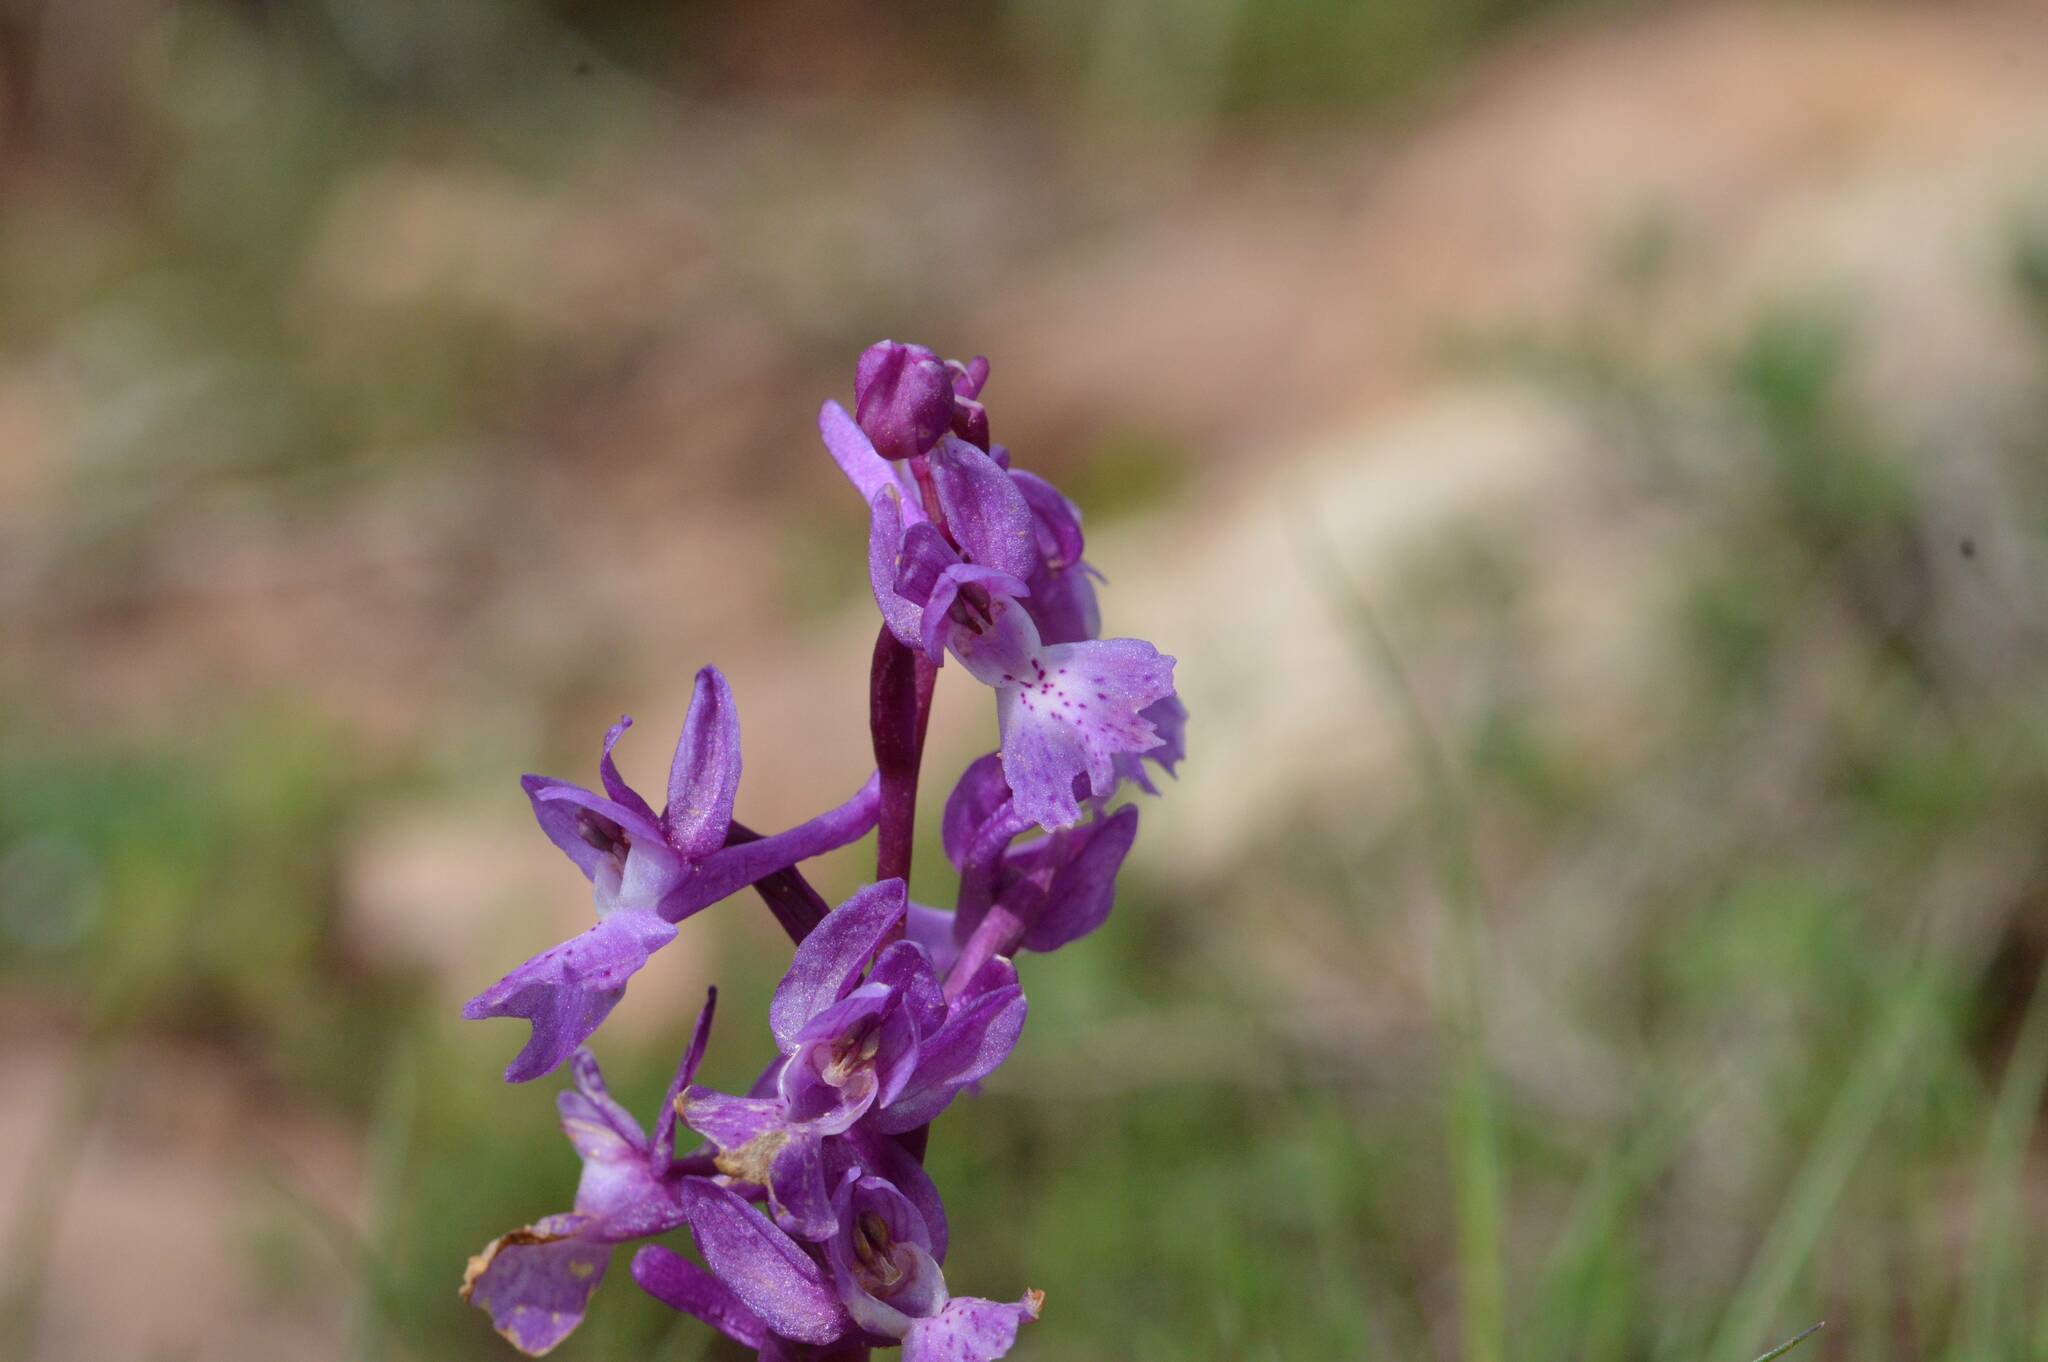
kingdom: Plantae
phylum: Tracheophyta
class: Liliopsida
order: Asparagales
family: Orchidaceae
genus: Orchis
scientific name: Orchis olbiensis
